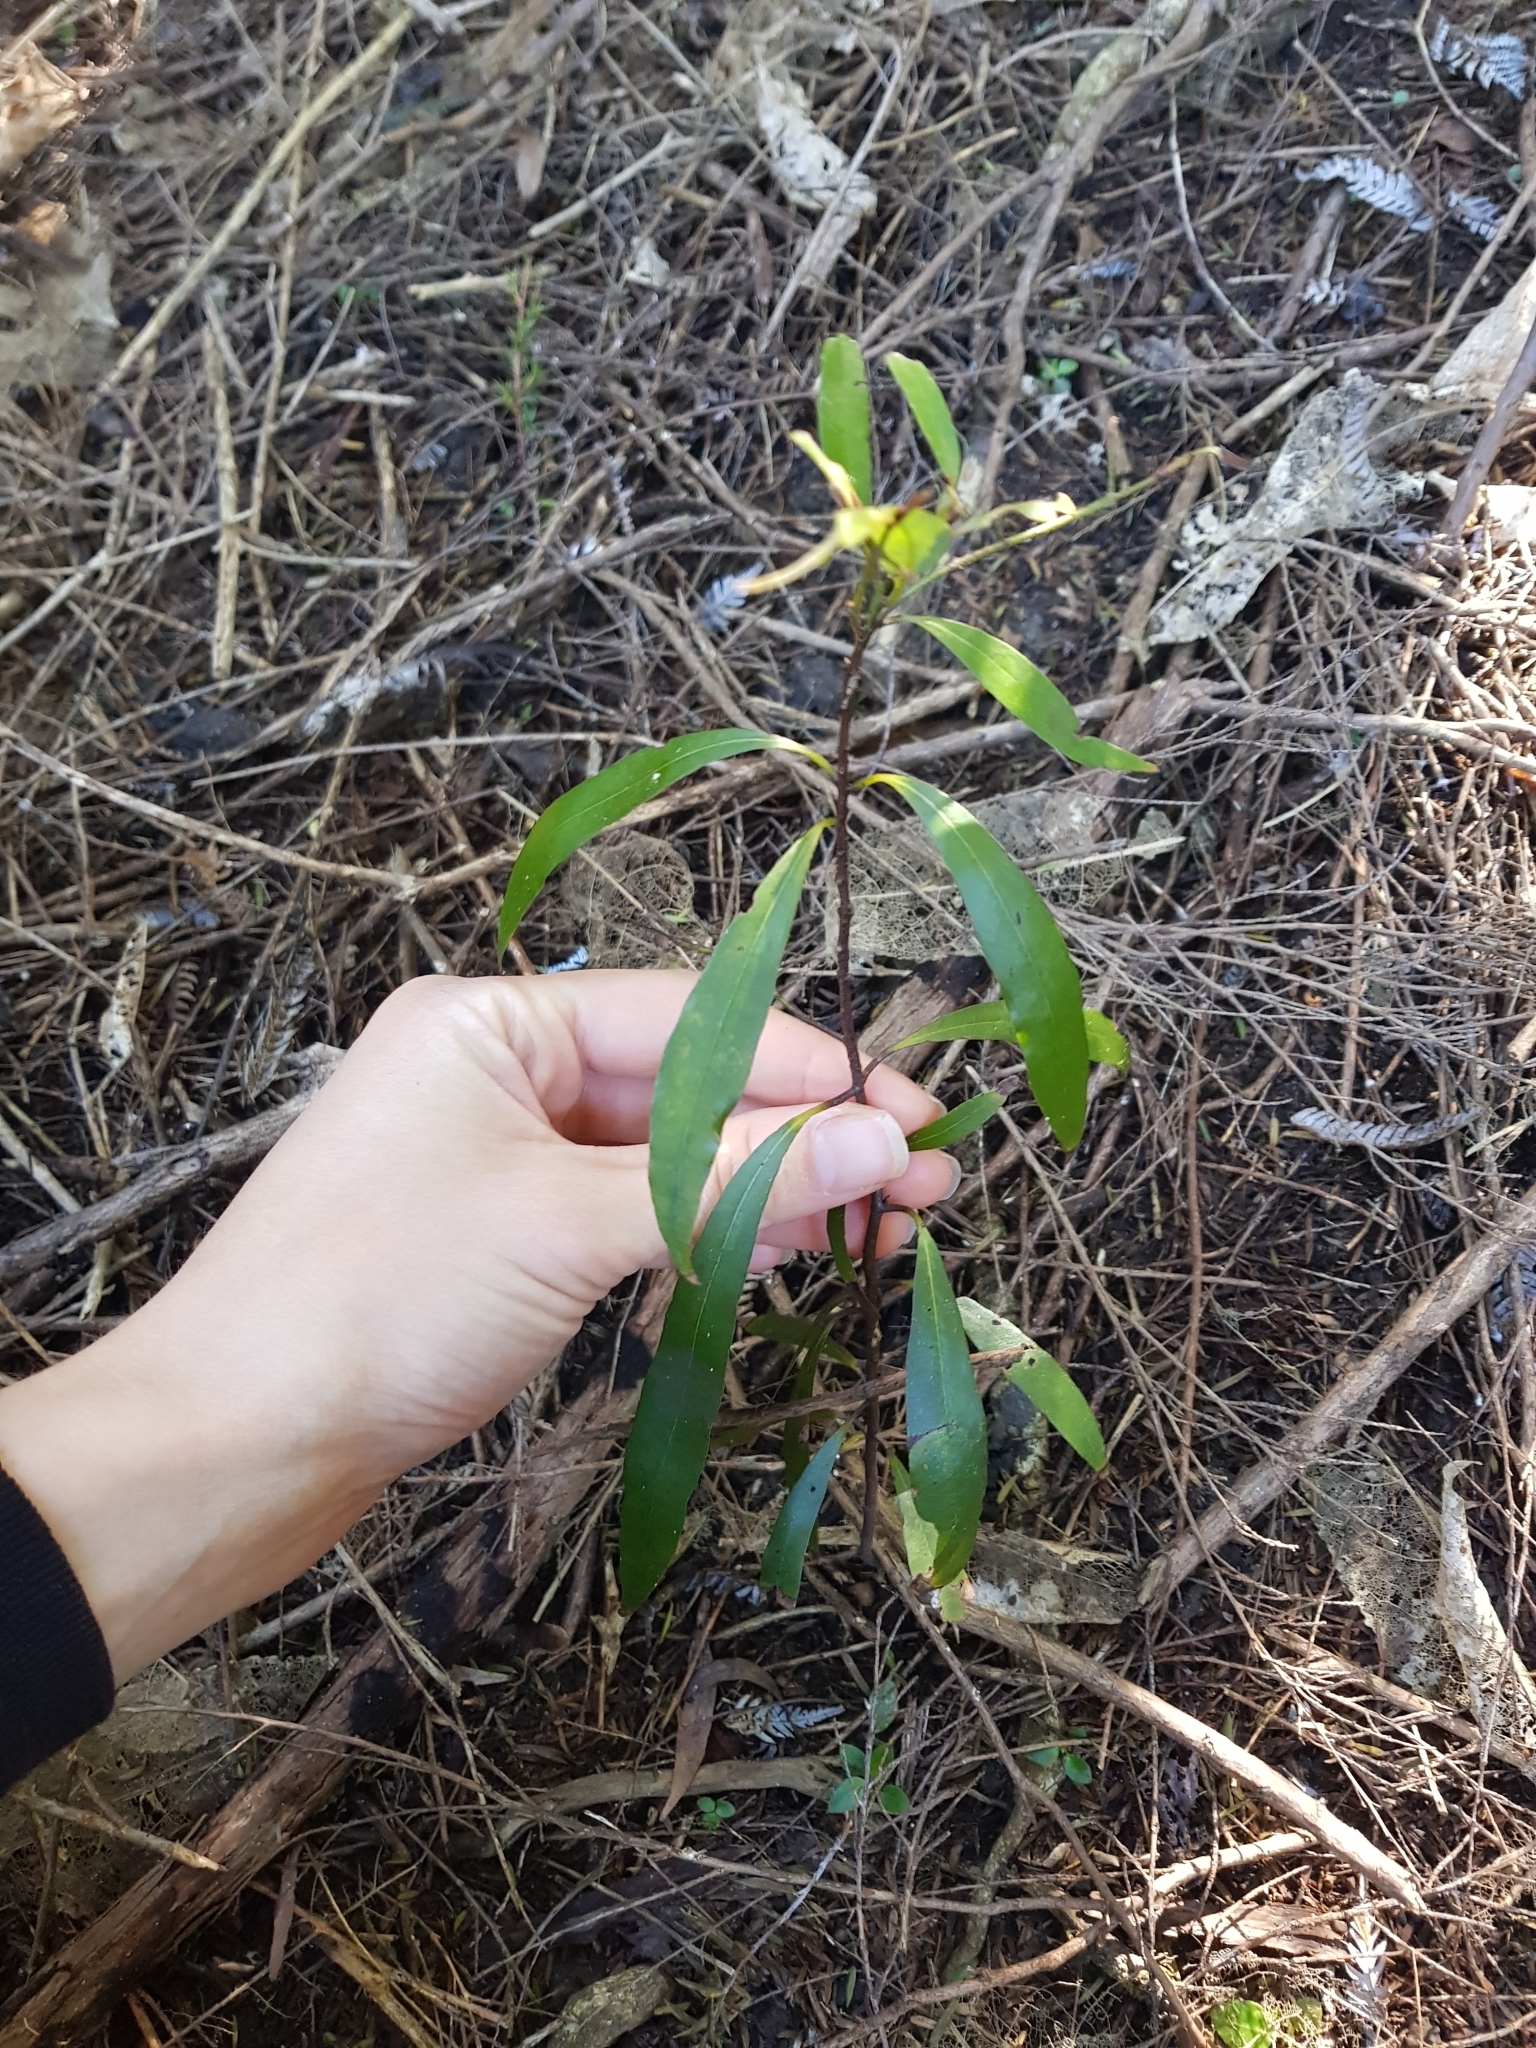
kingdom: Plantae
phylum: Tracheophyta
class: Magnoliopsida
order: Laurales
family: Lauraceae
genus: Beilschmiedia
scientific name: Beilschmiedia tawa
